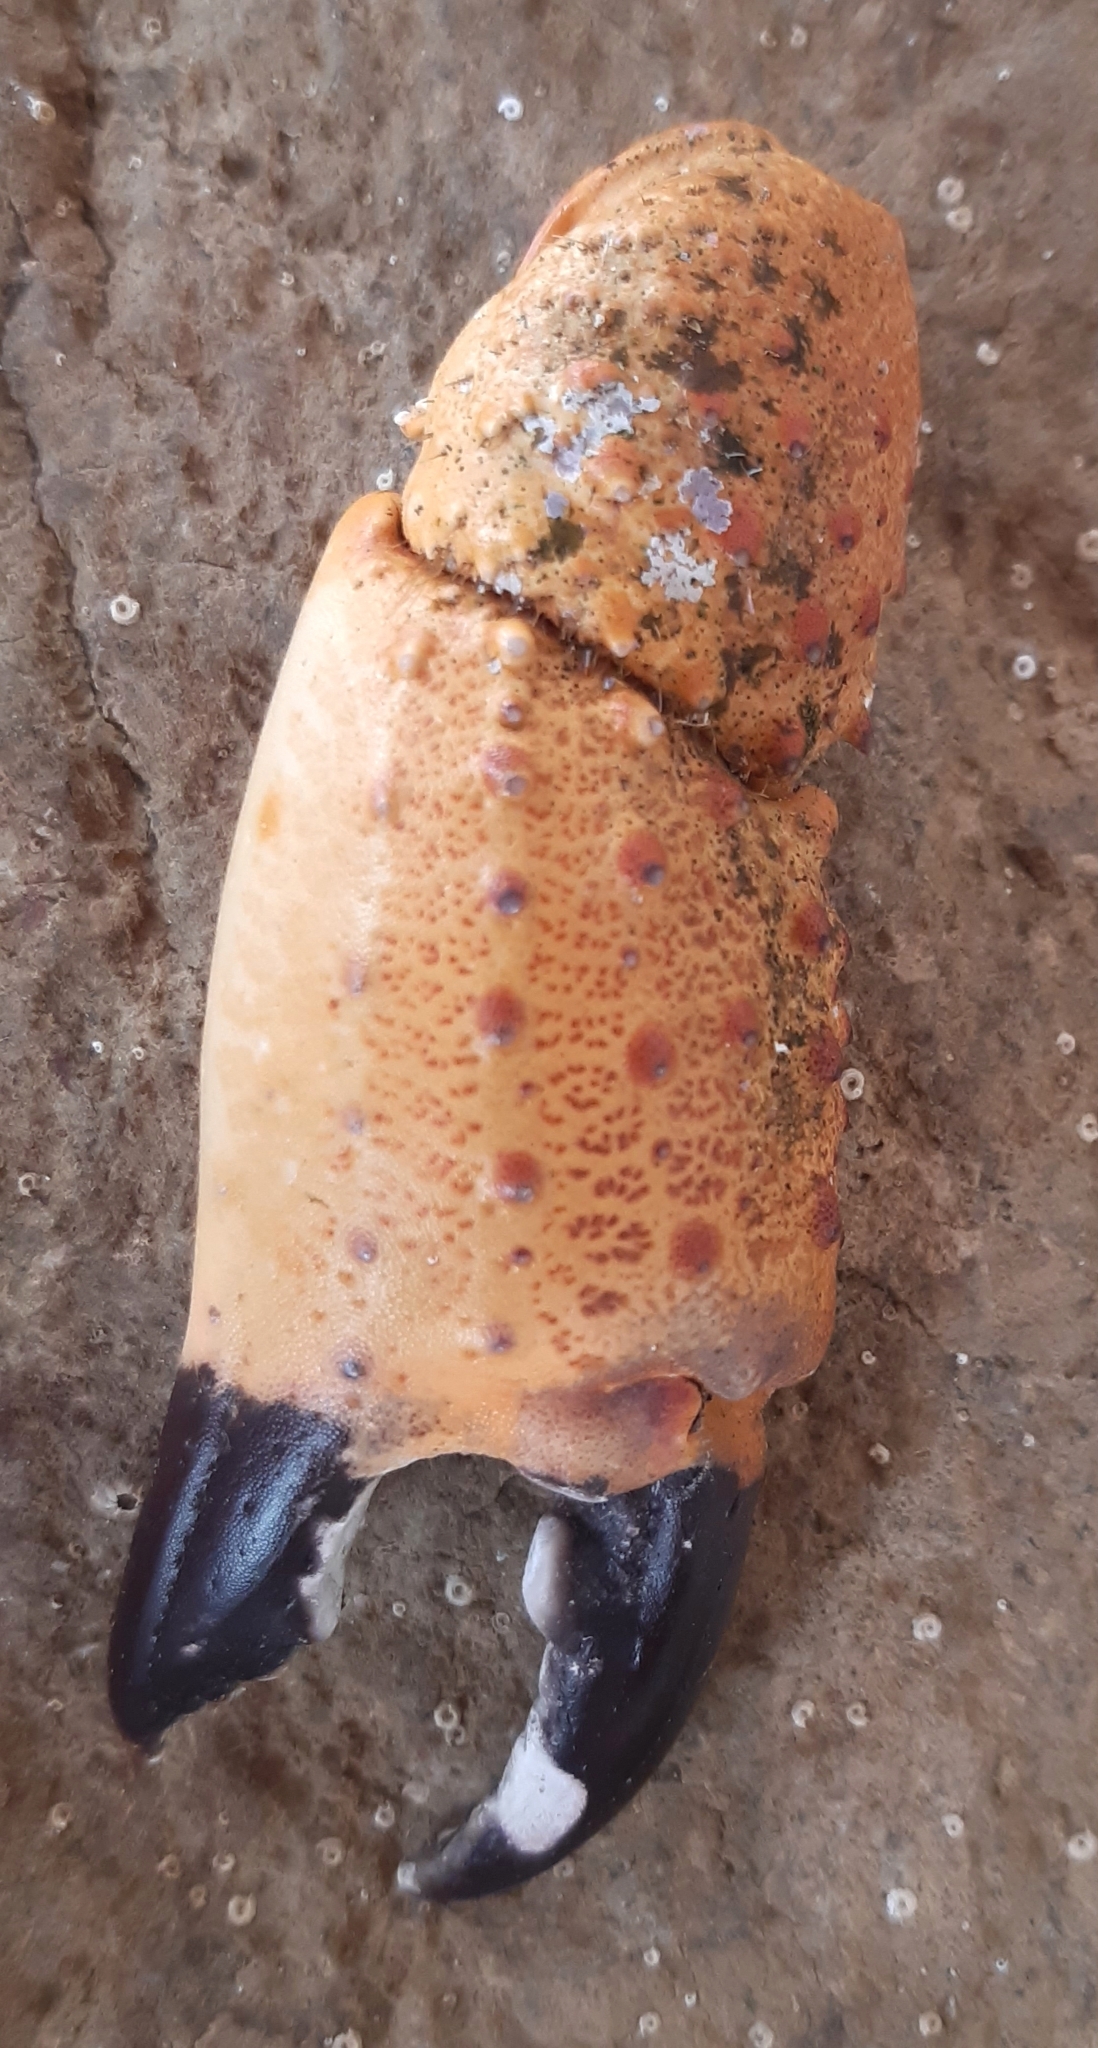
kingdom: Animalia
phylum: Arthropoda
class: Malacostraca
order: Decapoda
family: Eriphiidae
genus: Eriphia
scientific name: Eriphia verrucosa
